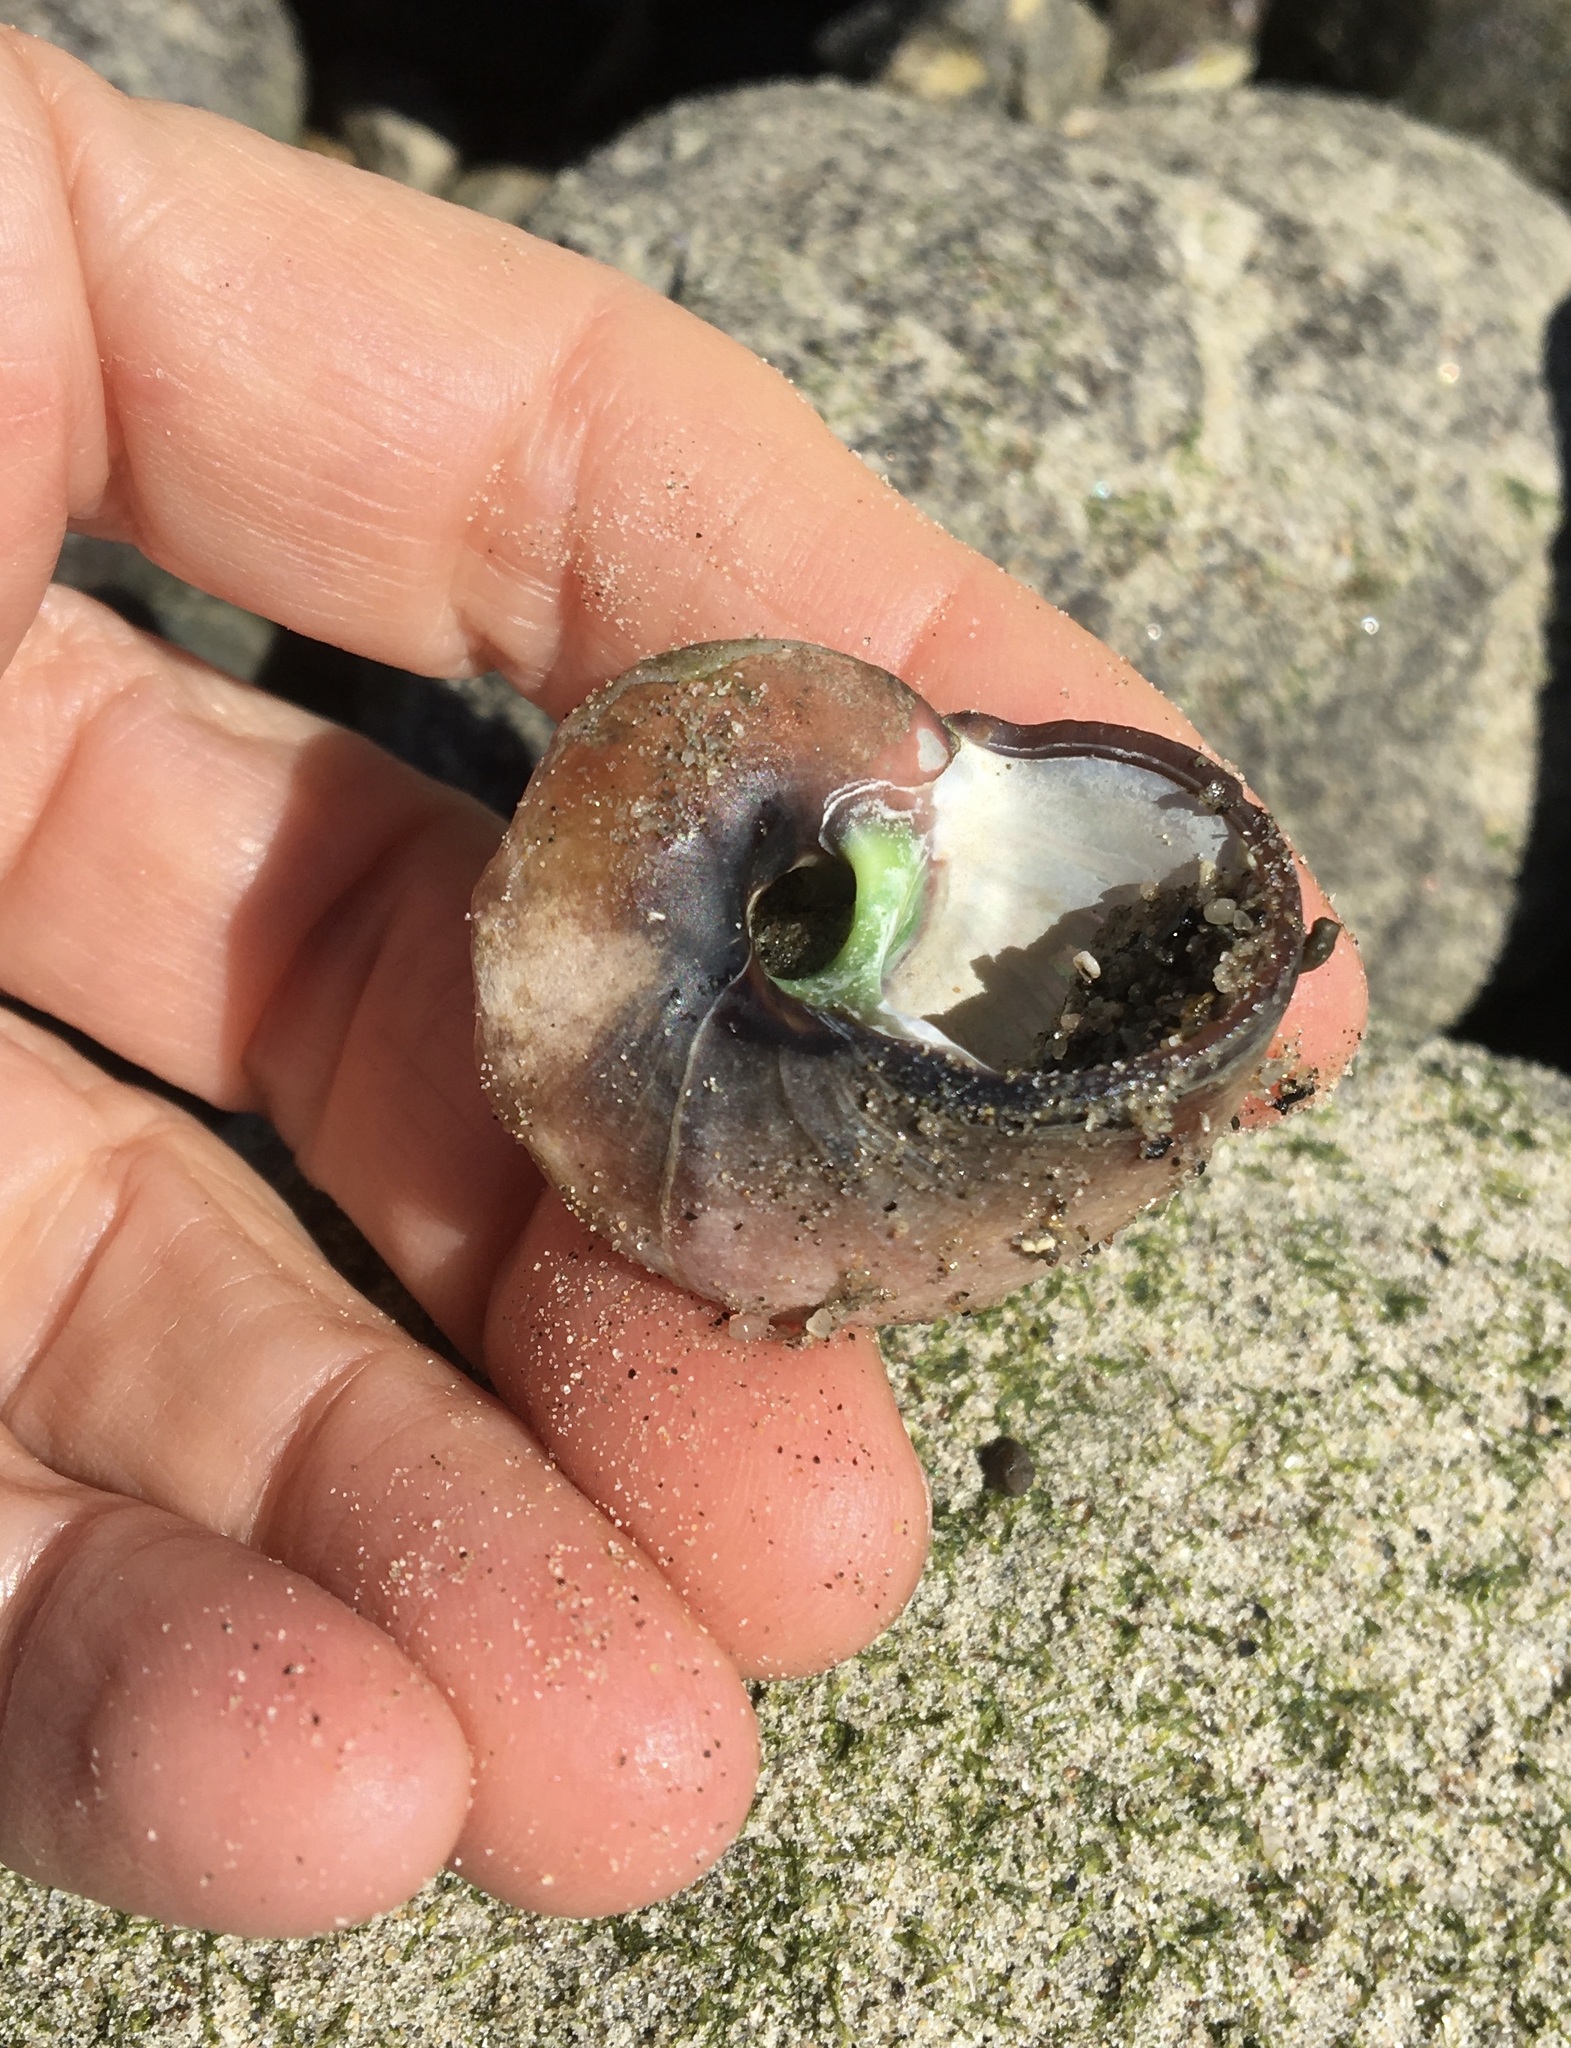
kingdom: Animalia
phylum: Mollusca
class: Gastropoda
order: Trochida
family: Tegulidae
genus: Norrisia
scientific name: Norrisia norrisii
